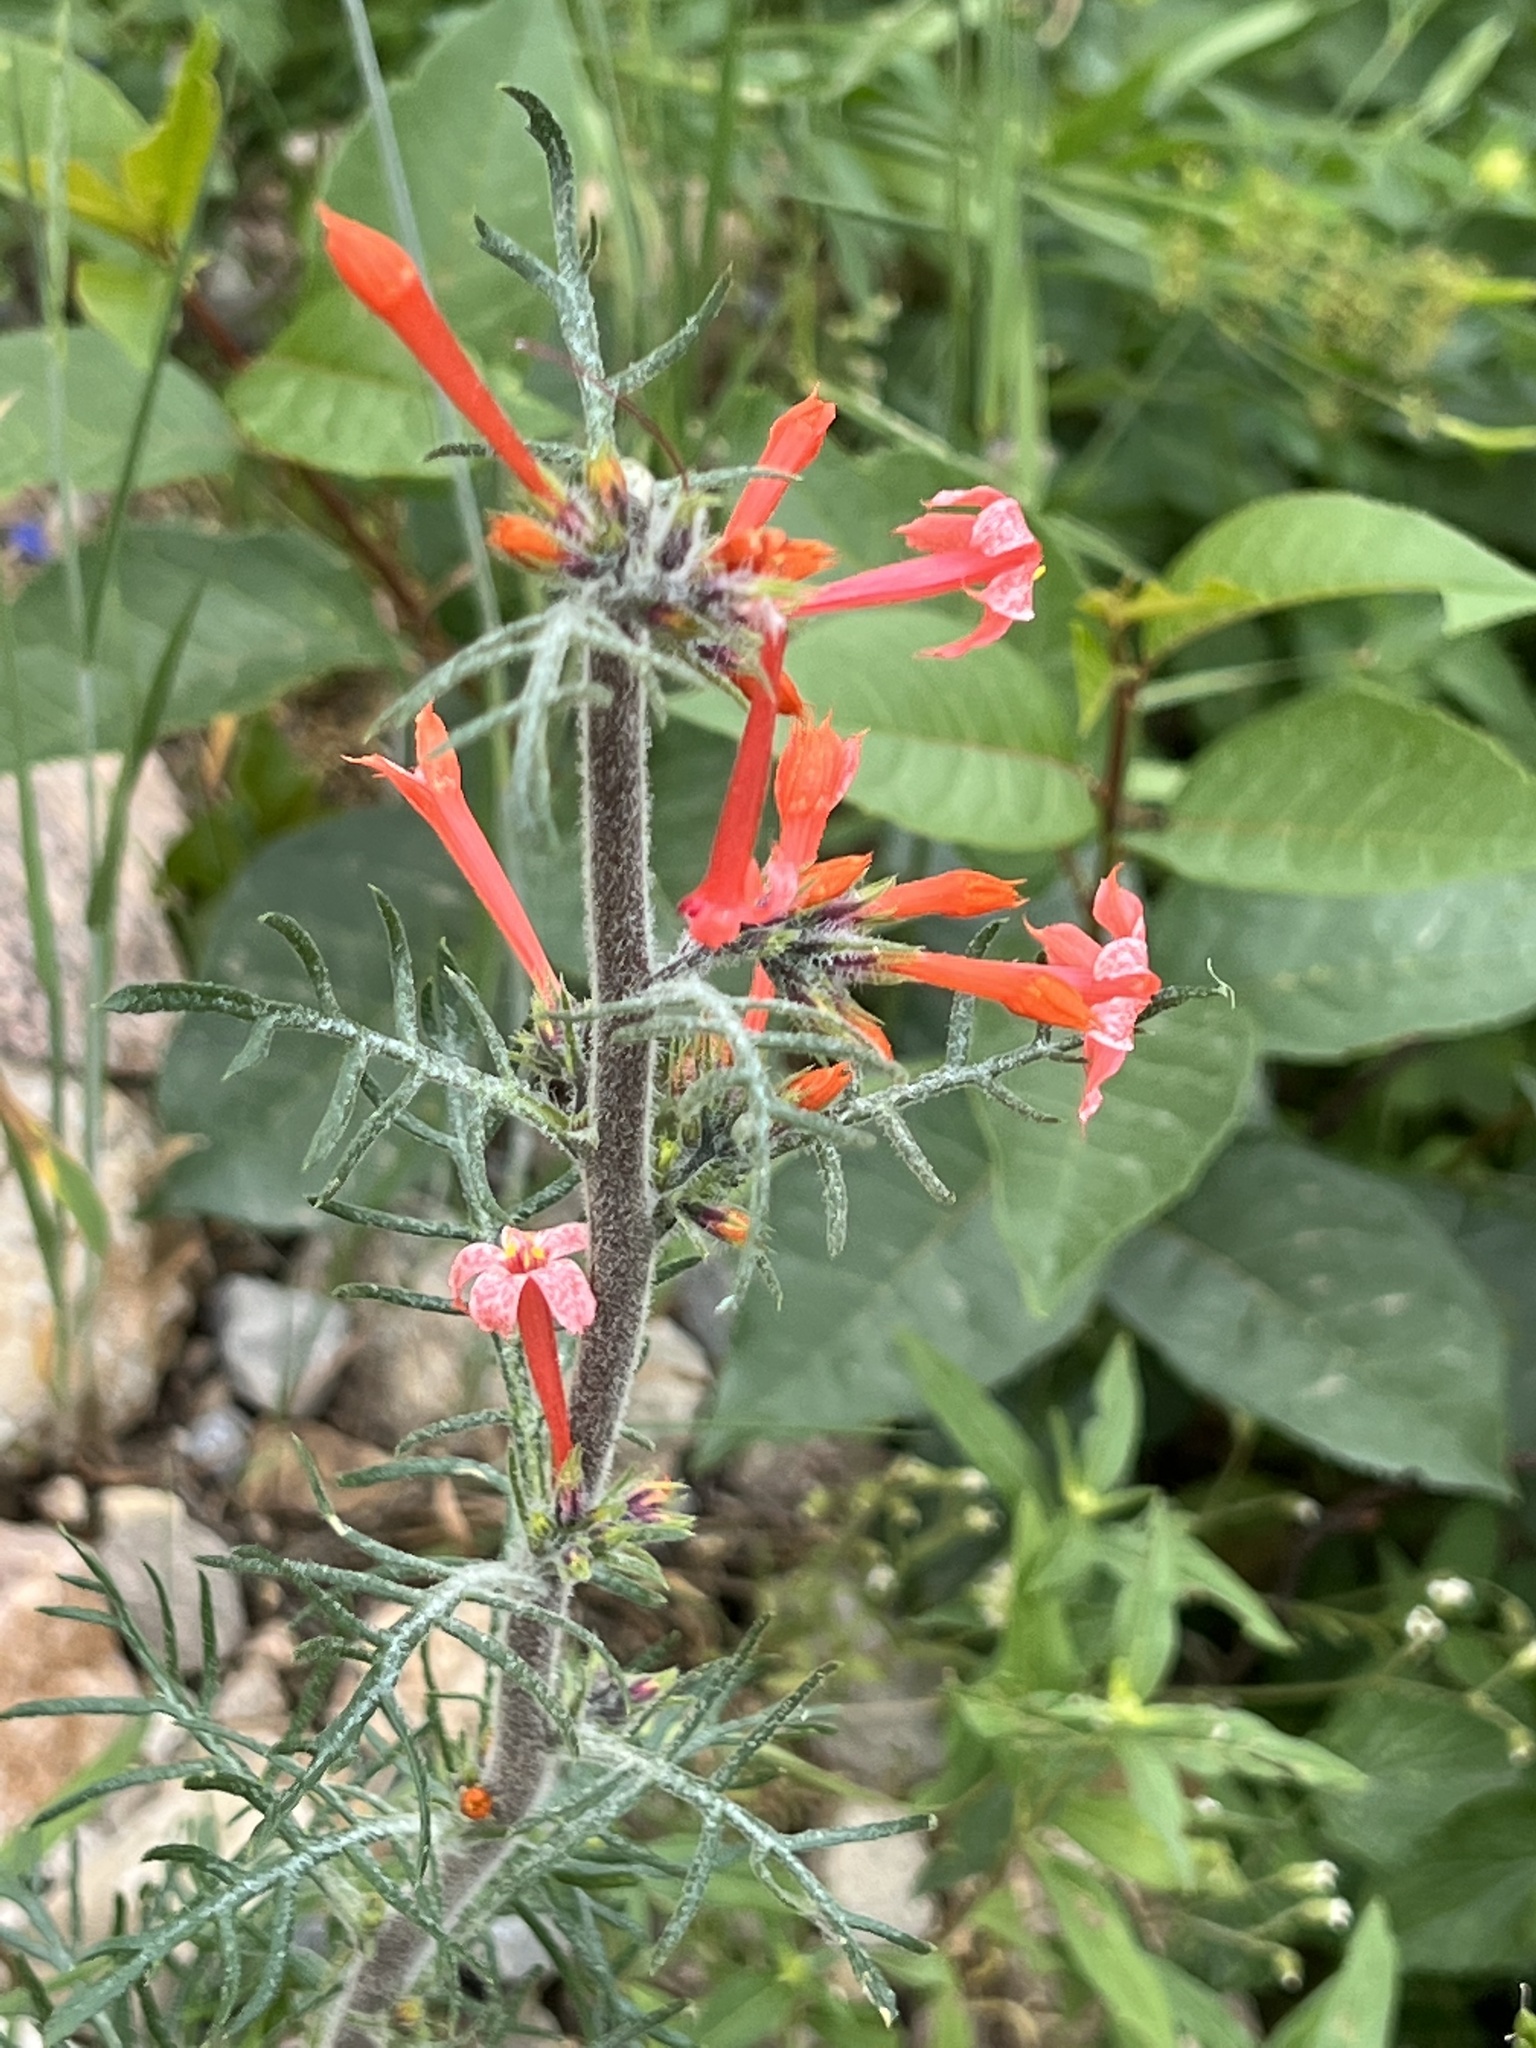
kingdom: Plantae
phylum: Tracheophyta
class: Magnoliopsida
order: Ericales
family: Polemoniaceae
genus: Ipomopsis
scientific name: Ipomopsis aggregata
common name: Scarlet gilia
